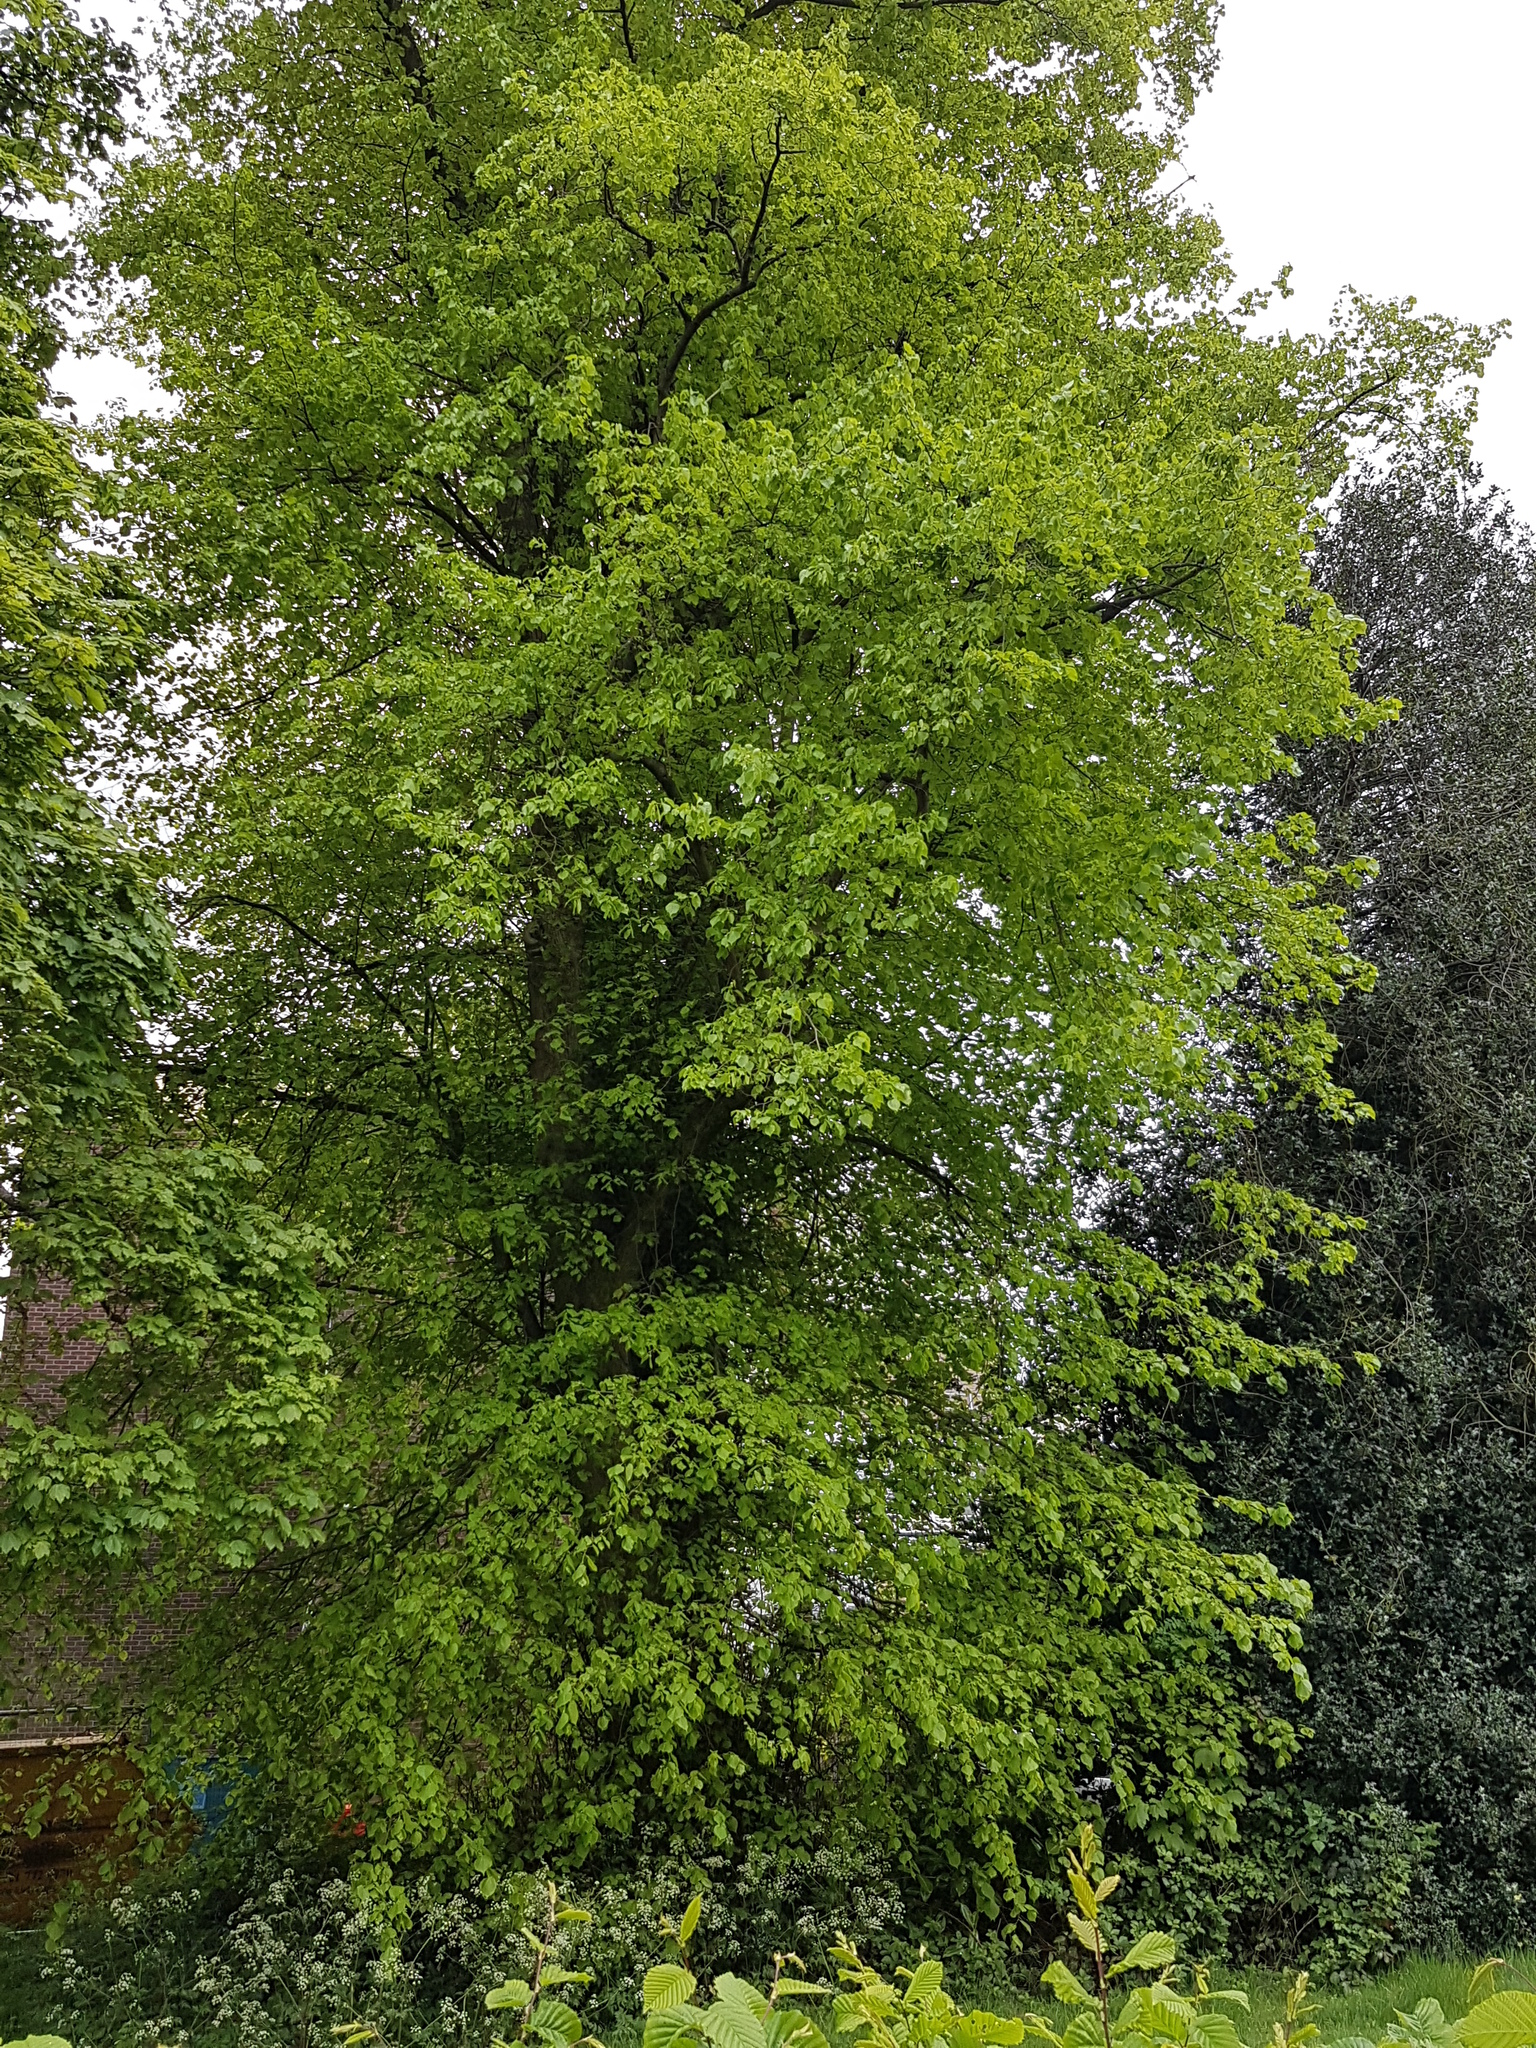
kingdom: Plantae
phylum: Tracheophyta
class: Magnoliopsida
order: Malvales
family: Malvaceae
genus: Tilia
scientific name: Tilia europaea
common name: European linden
